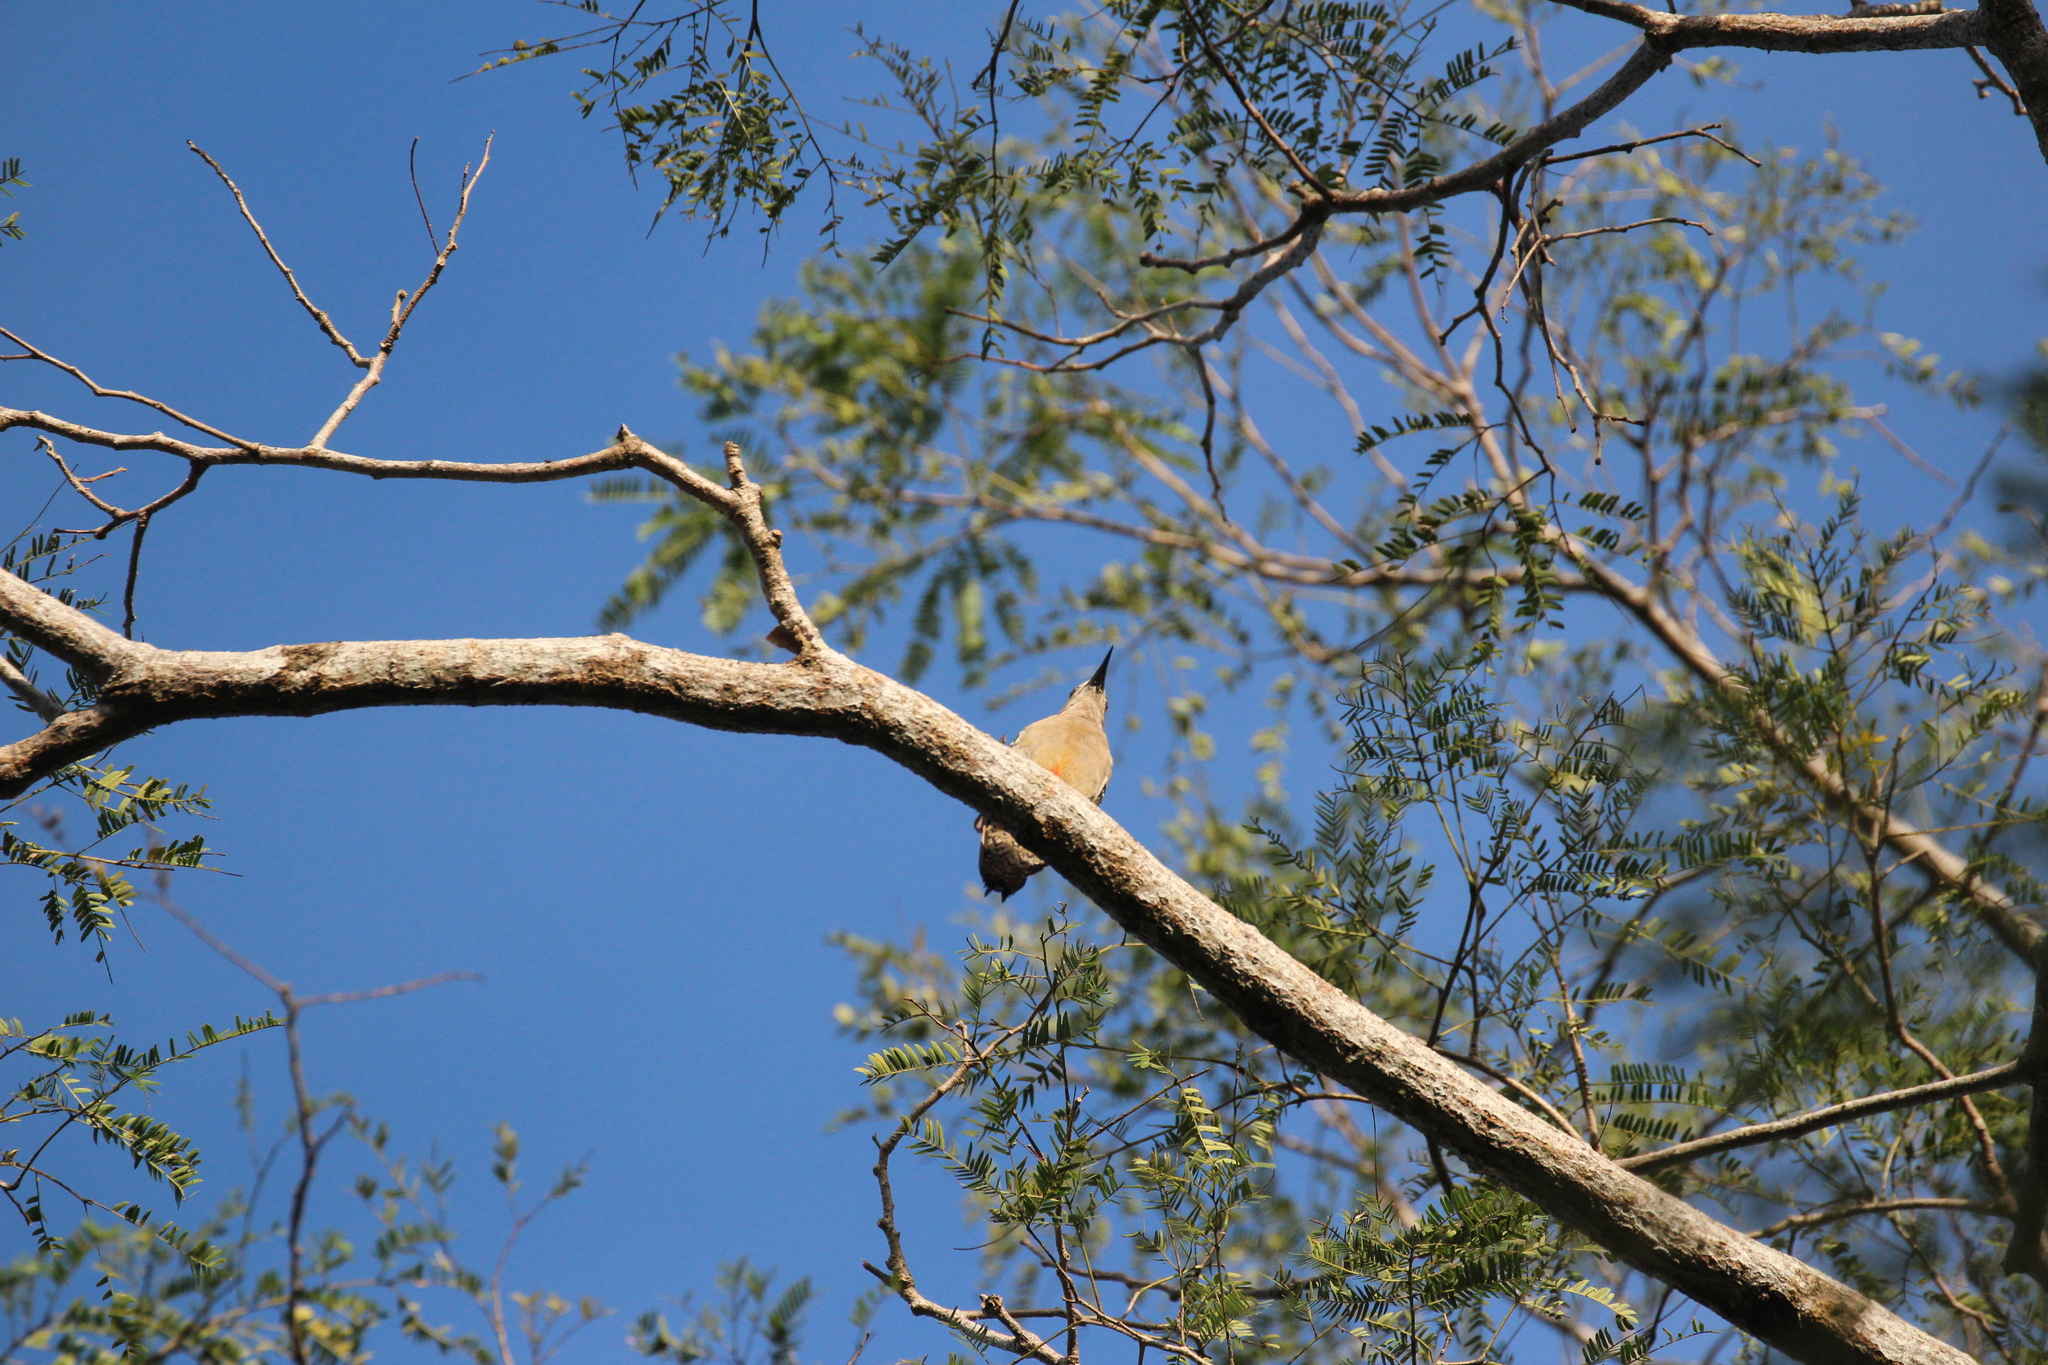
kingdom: Animalia
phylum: Chordata
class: Aves
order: Piciformes
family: Picidae
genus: Melanerpes
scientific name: Melanerpes rubricapillus
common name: Red-crowned woodpecker
